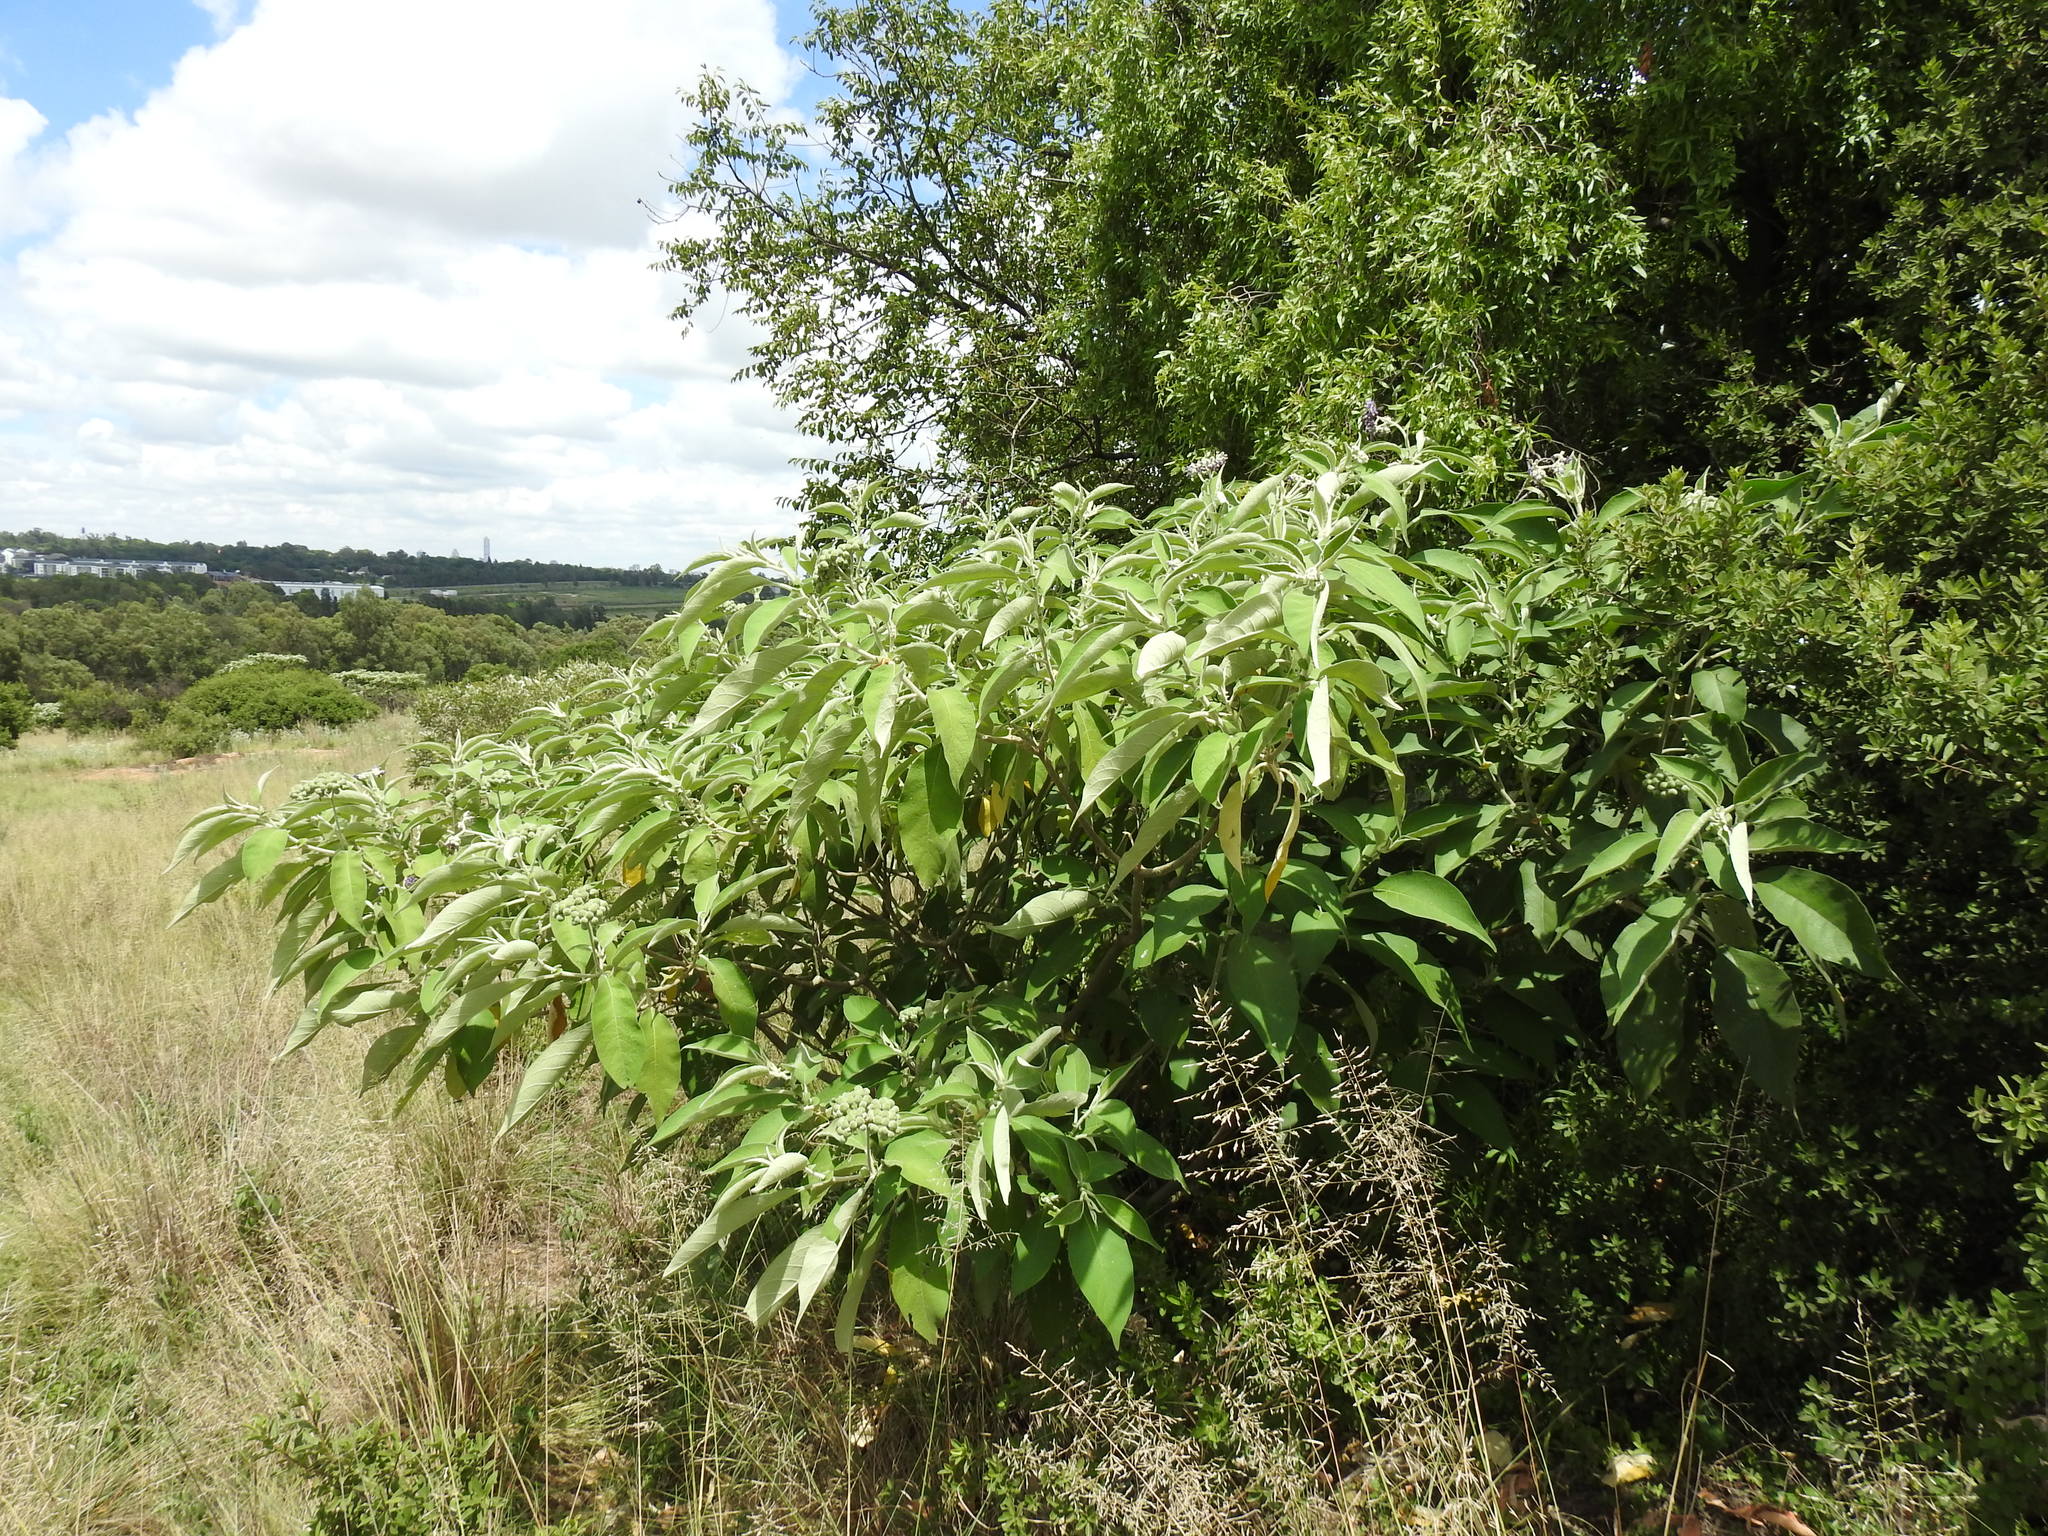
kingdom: Plantae
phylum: Tracheophyta
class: Magnoliopsida
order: Solanales
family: Solanaceae
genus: Solanum
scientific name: Solanum mauritianum
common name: Earleaf nightshade
